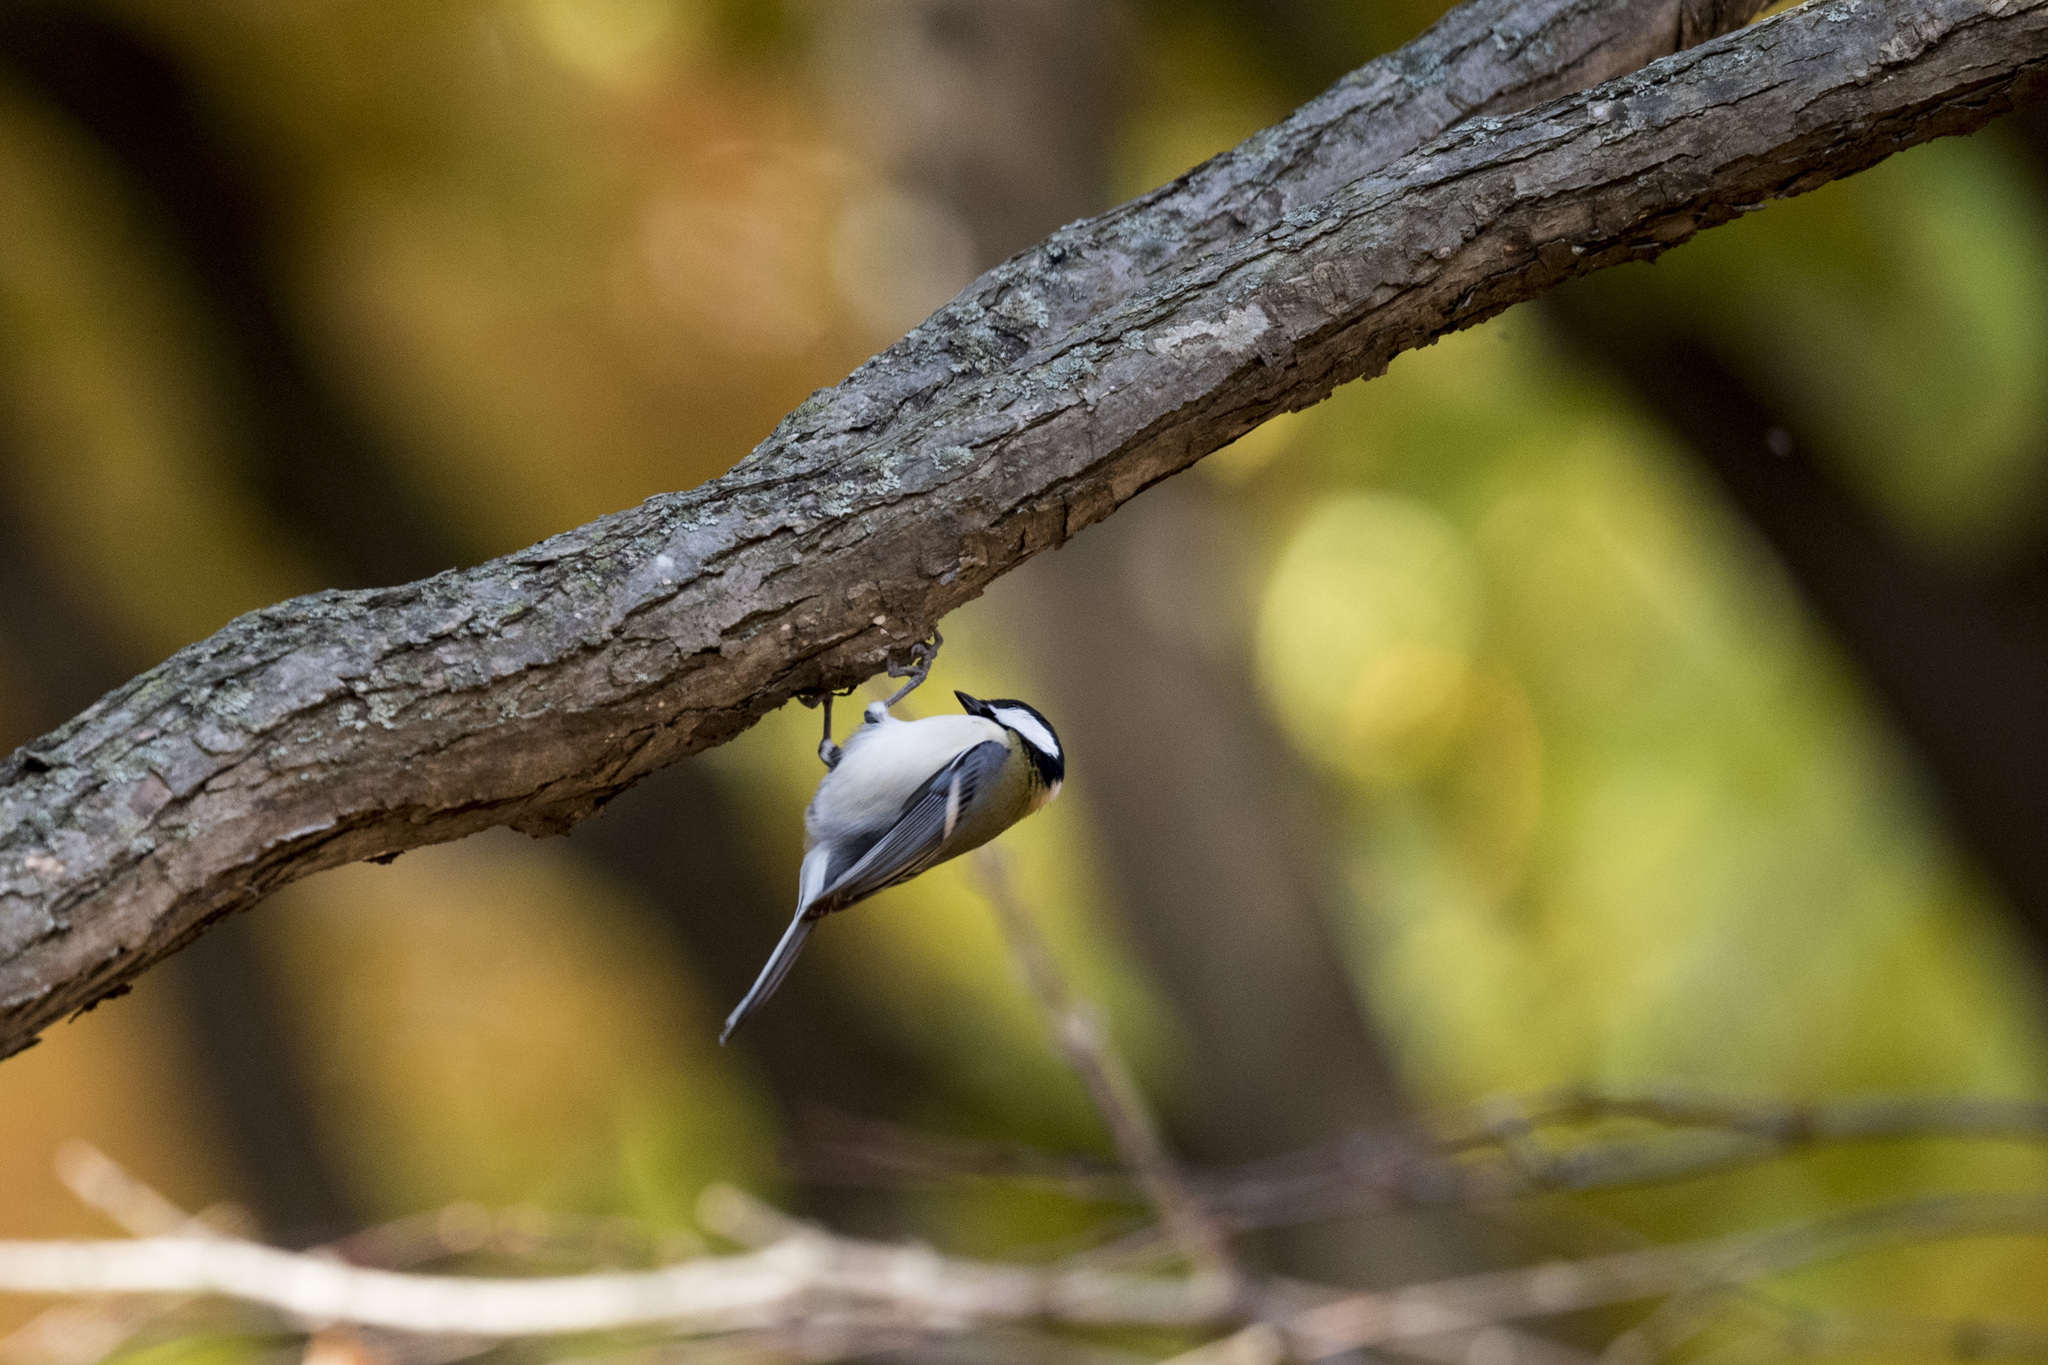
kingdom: Animalia
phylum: Chordata
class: Aves
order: Passeriformes
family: Paridae
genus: Parus
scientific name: Parus minor
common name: Japanese tit
